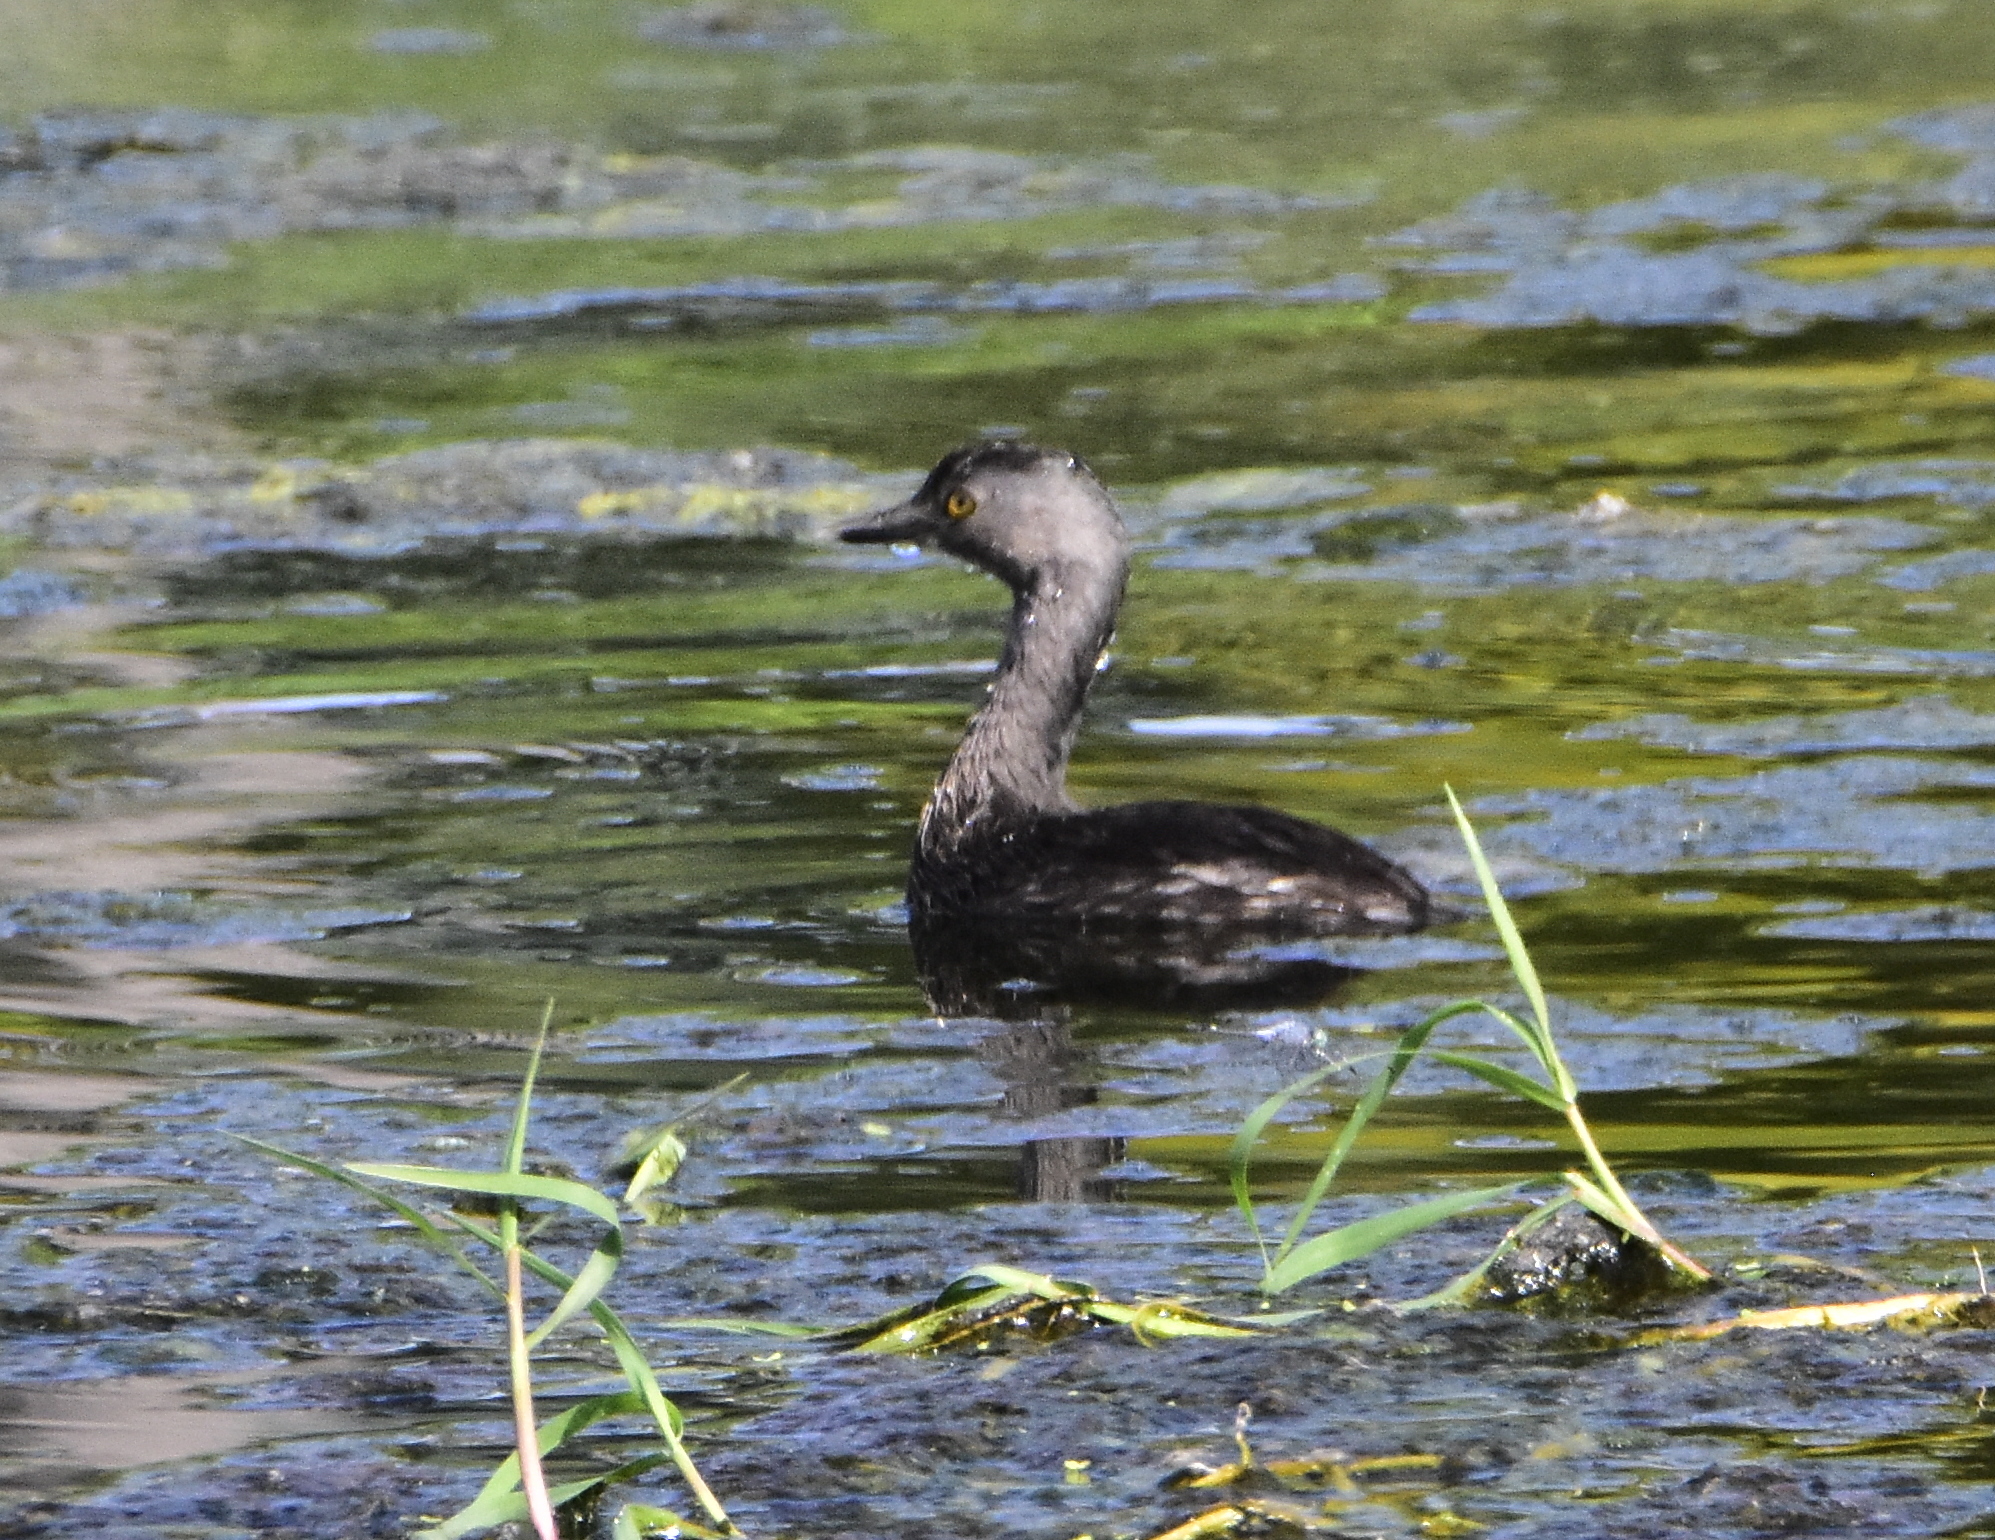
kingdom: Animalia
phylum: Chordata
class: Aves
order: Podicipediformes
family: Podicipedidae
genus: Tachybaptus
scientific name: Tachybaptus dominicus
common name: Least grebe
